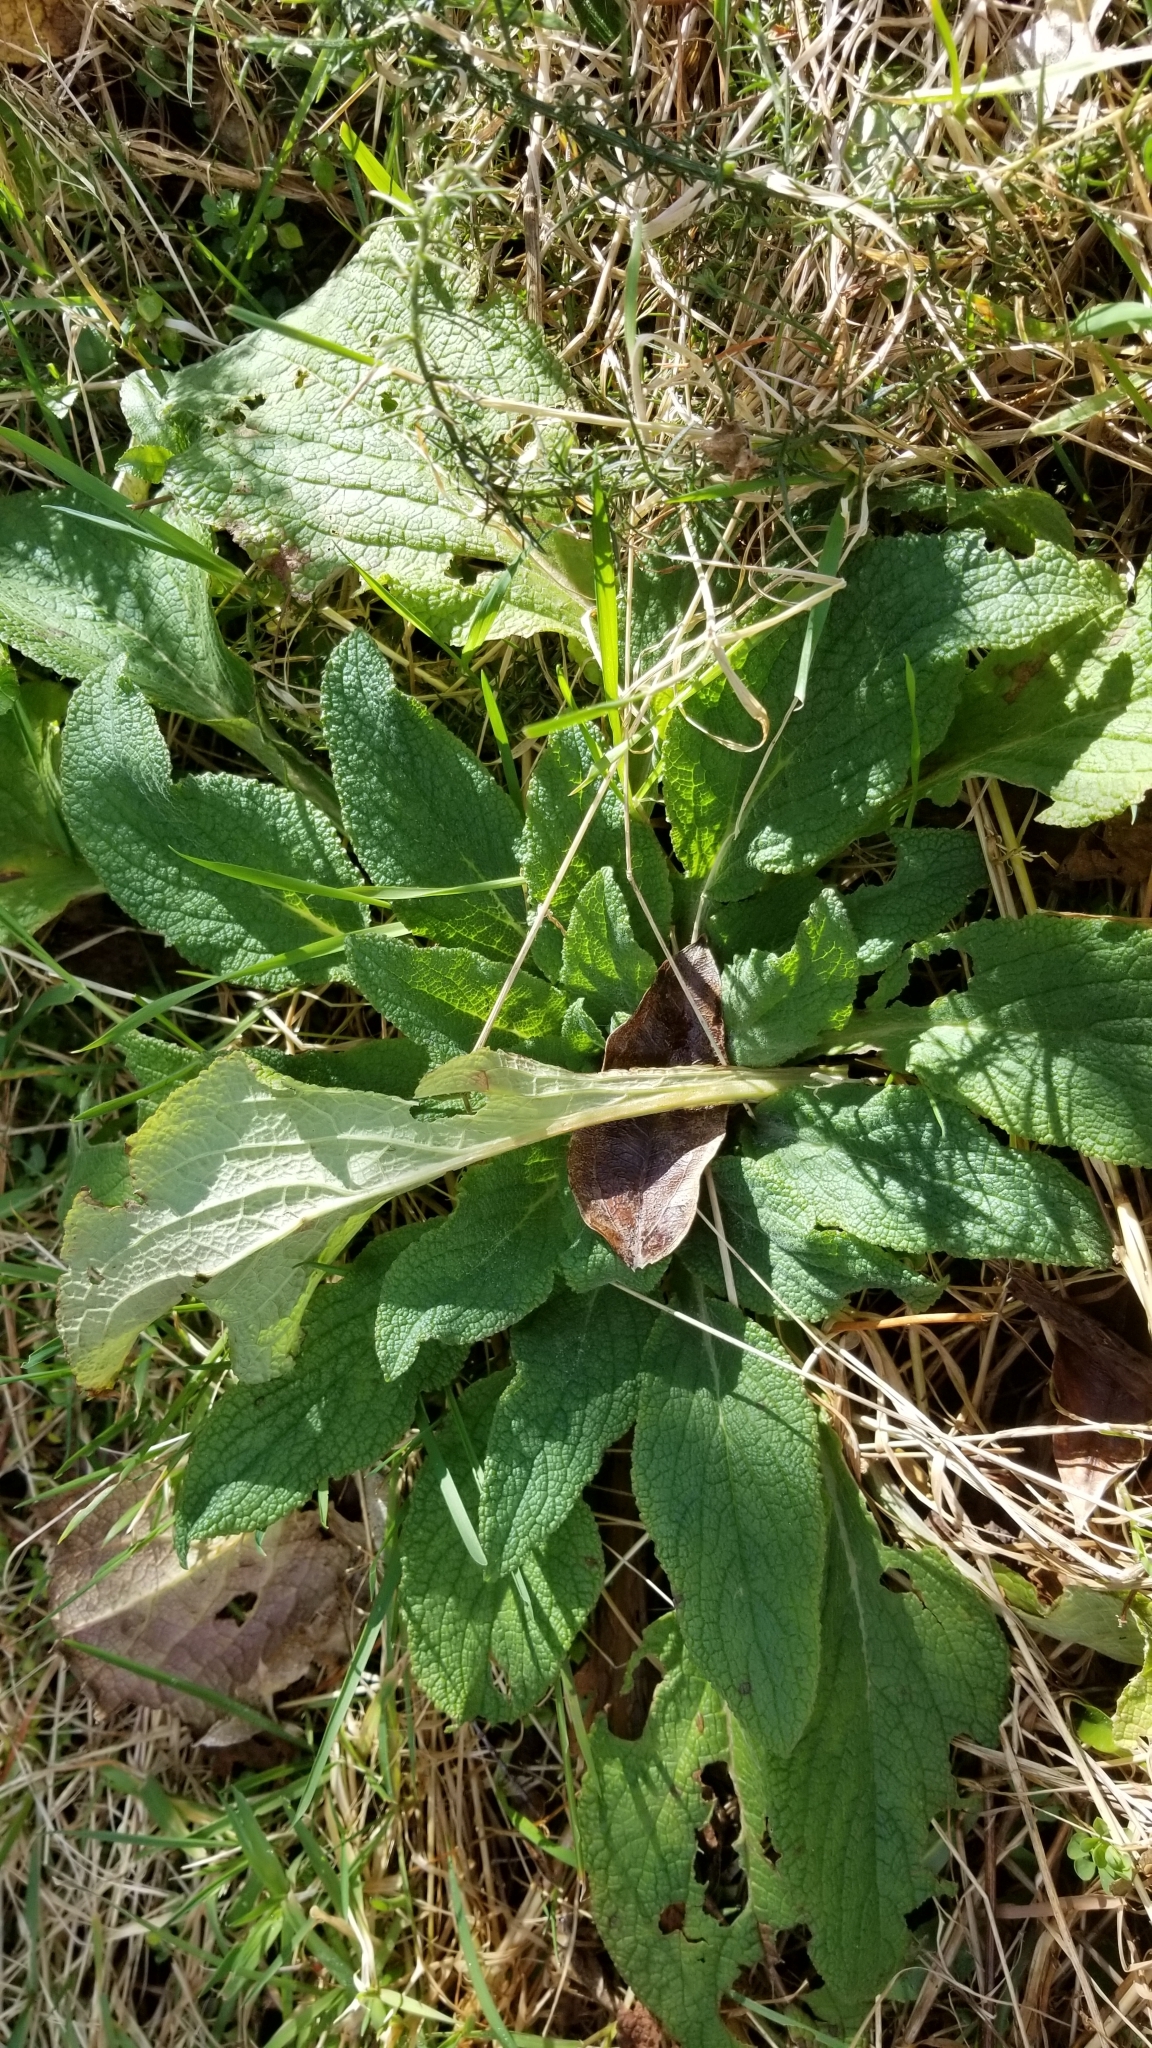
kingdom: Plantae
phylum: Tracheophyta
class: Magnoliopsida
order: Lamiales
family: Plantaginaceae
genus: Digitalis
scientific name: Digitalis purpurea
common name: Foxglove
